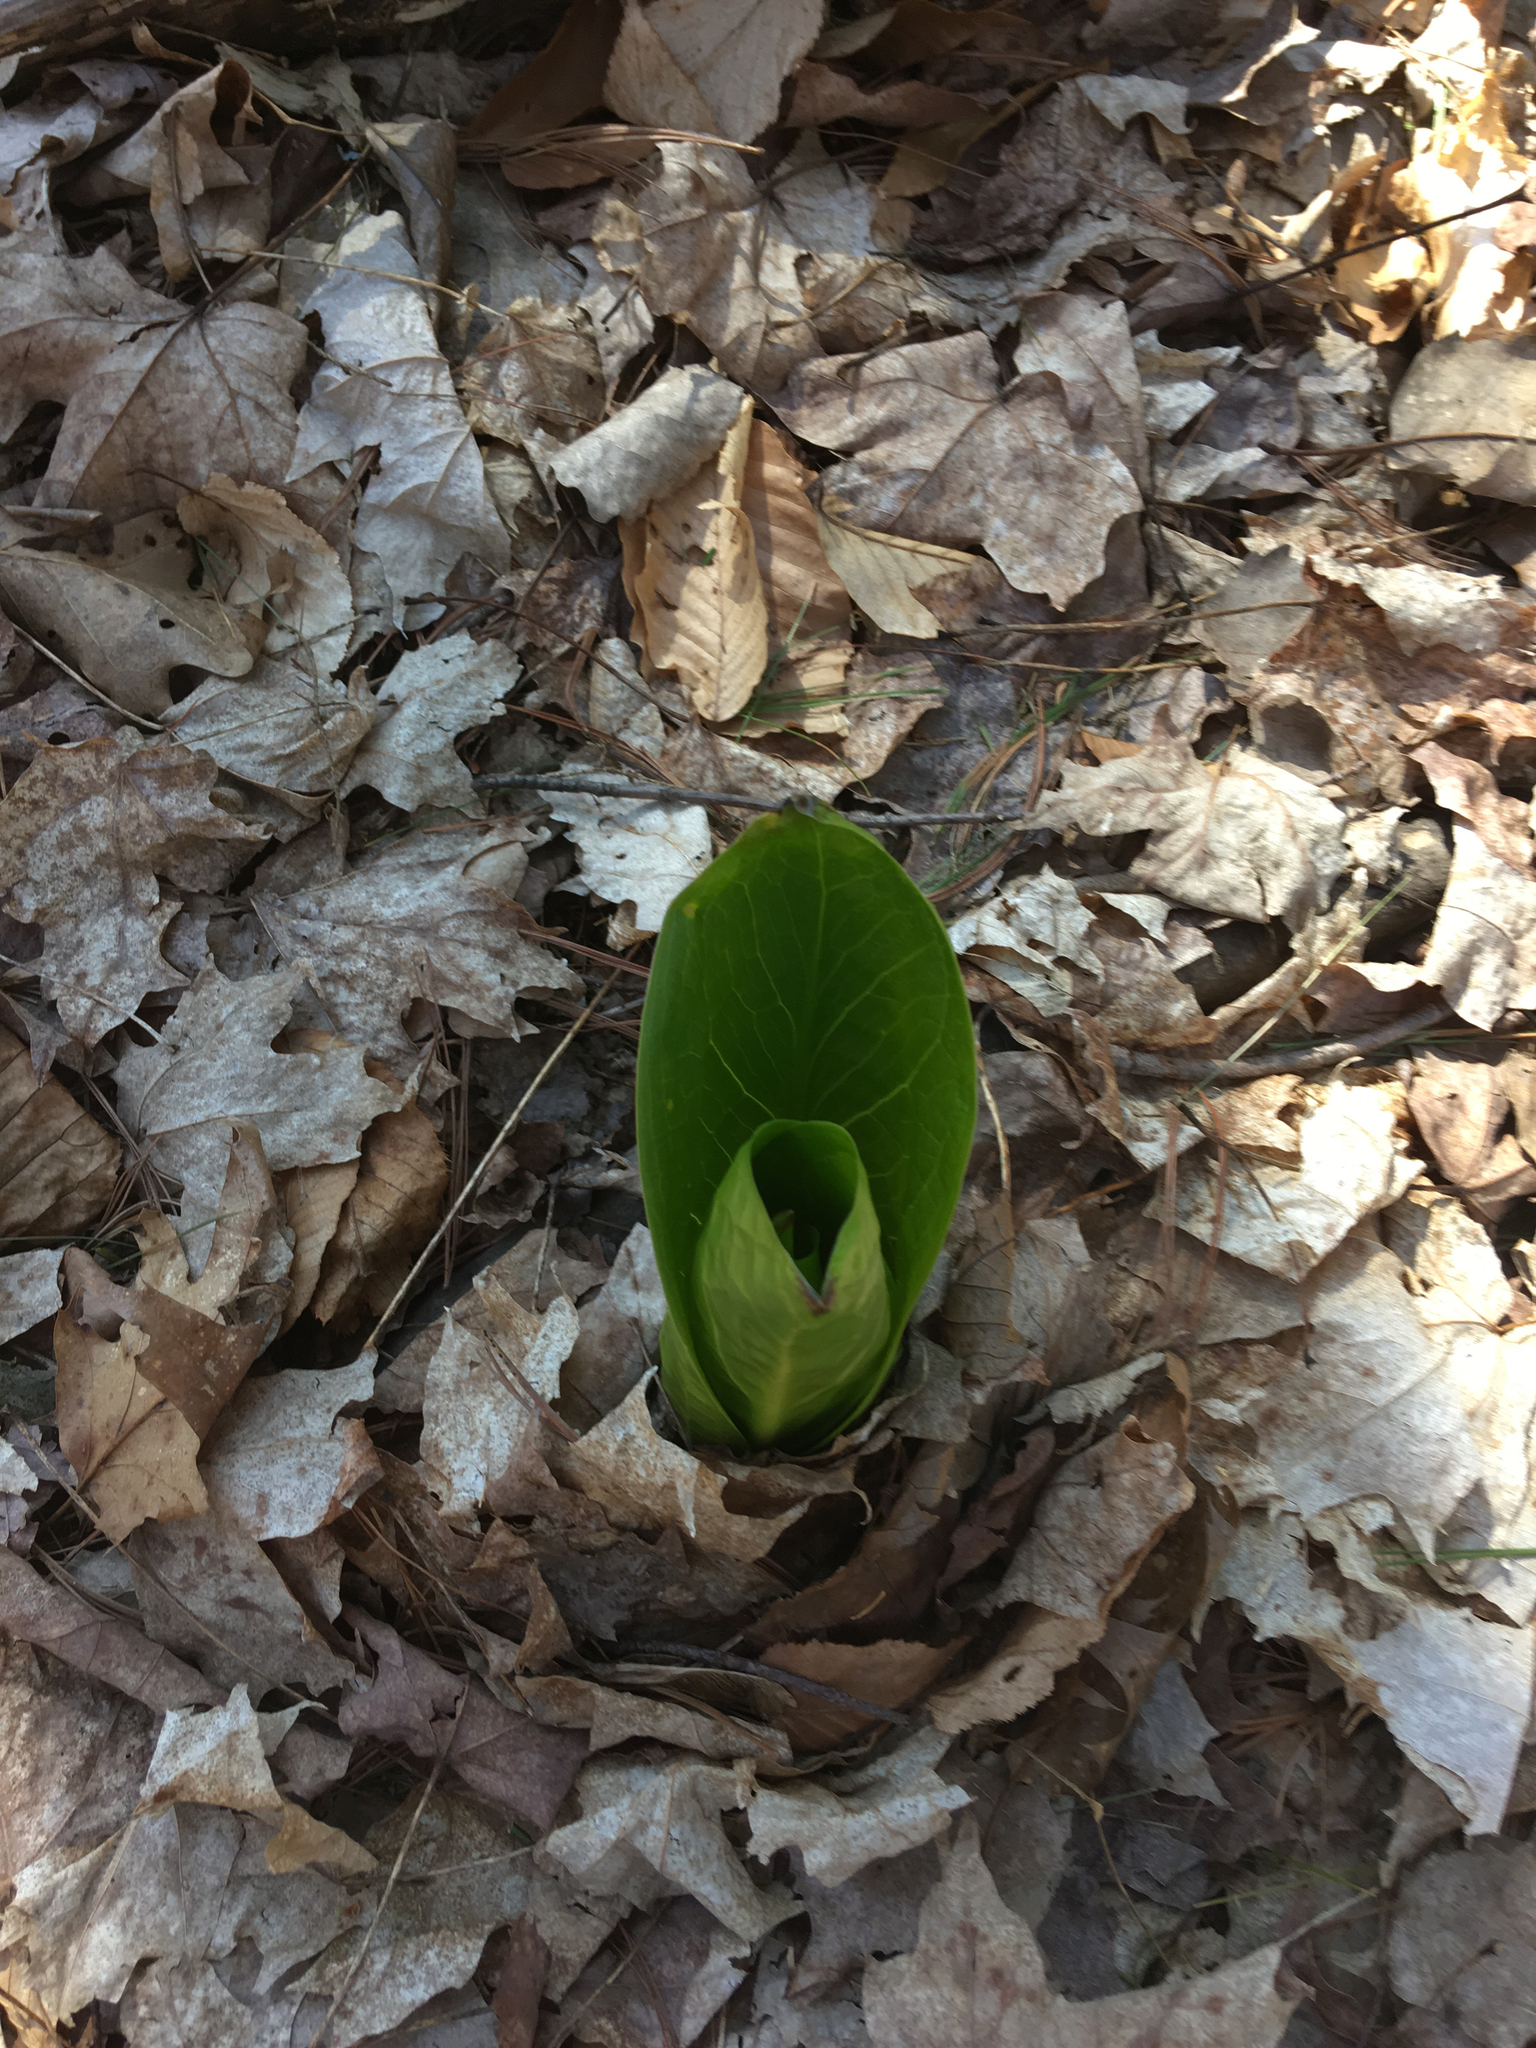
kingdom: Plantae
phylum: Tracheophyta
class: Liliopsida
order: Alismatales
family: Araceae
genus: Symplocarpus
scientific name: Symplocarpus foetidus
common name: Eastern skunk cabbage
